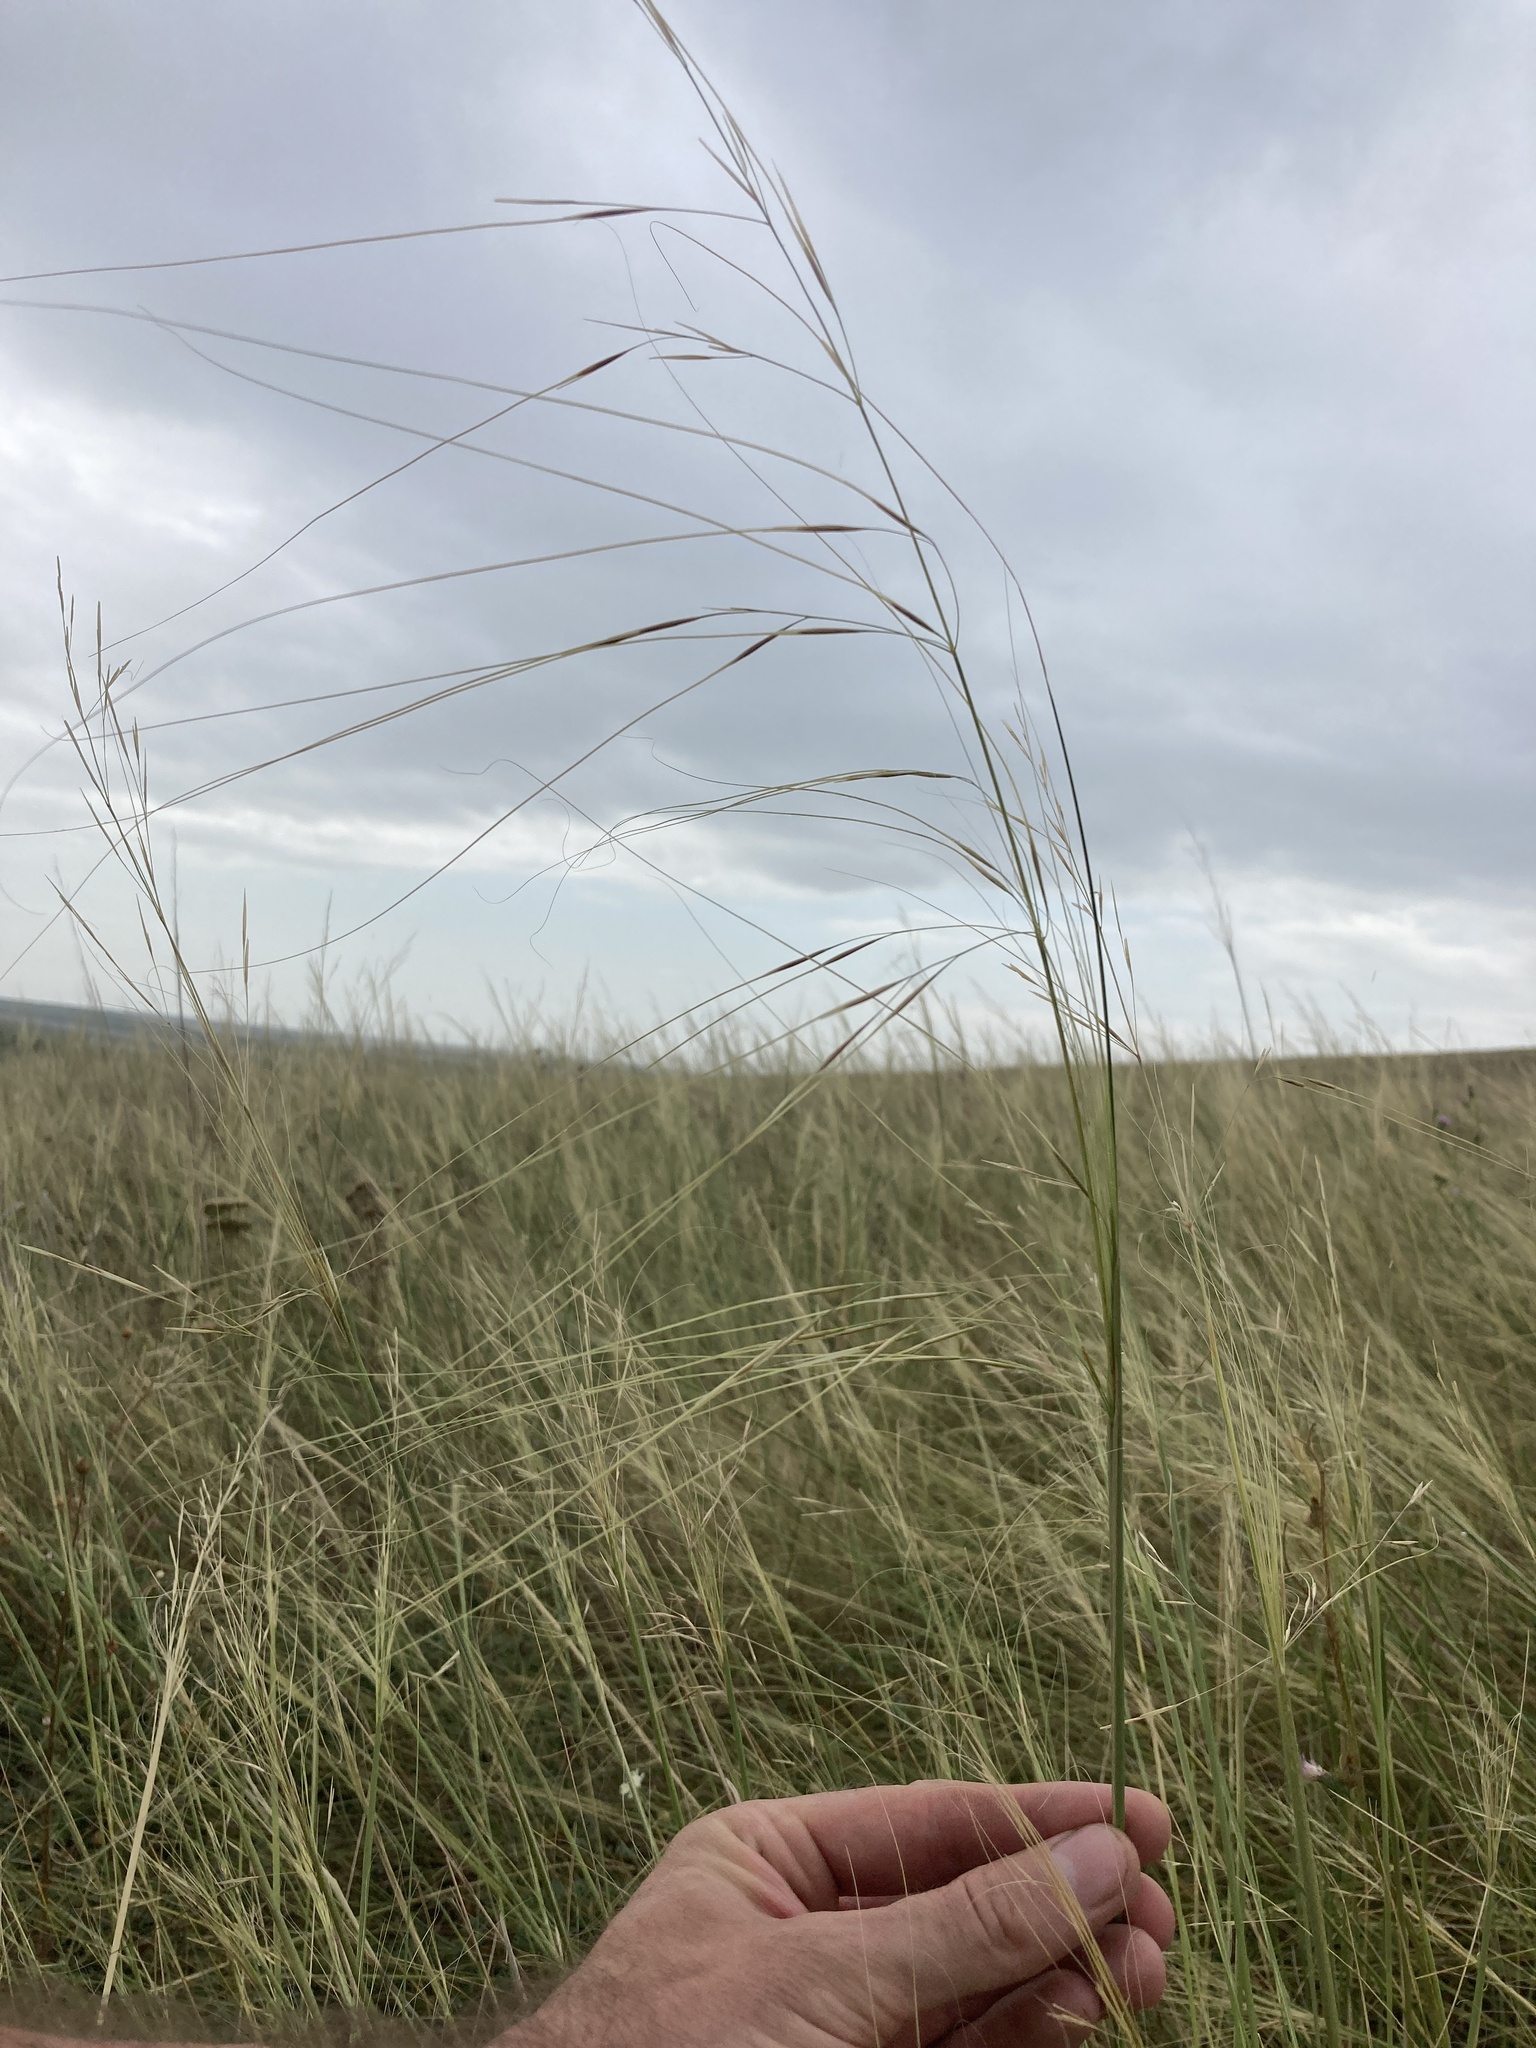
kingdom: Plantae
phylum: Tracheophyta
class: Liliopsida
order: Poales
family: Poaceae
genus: Stipa
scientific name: Stipa capillata
